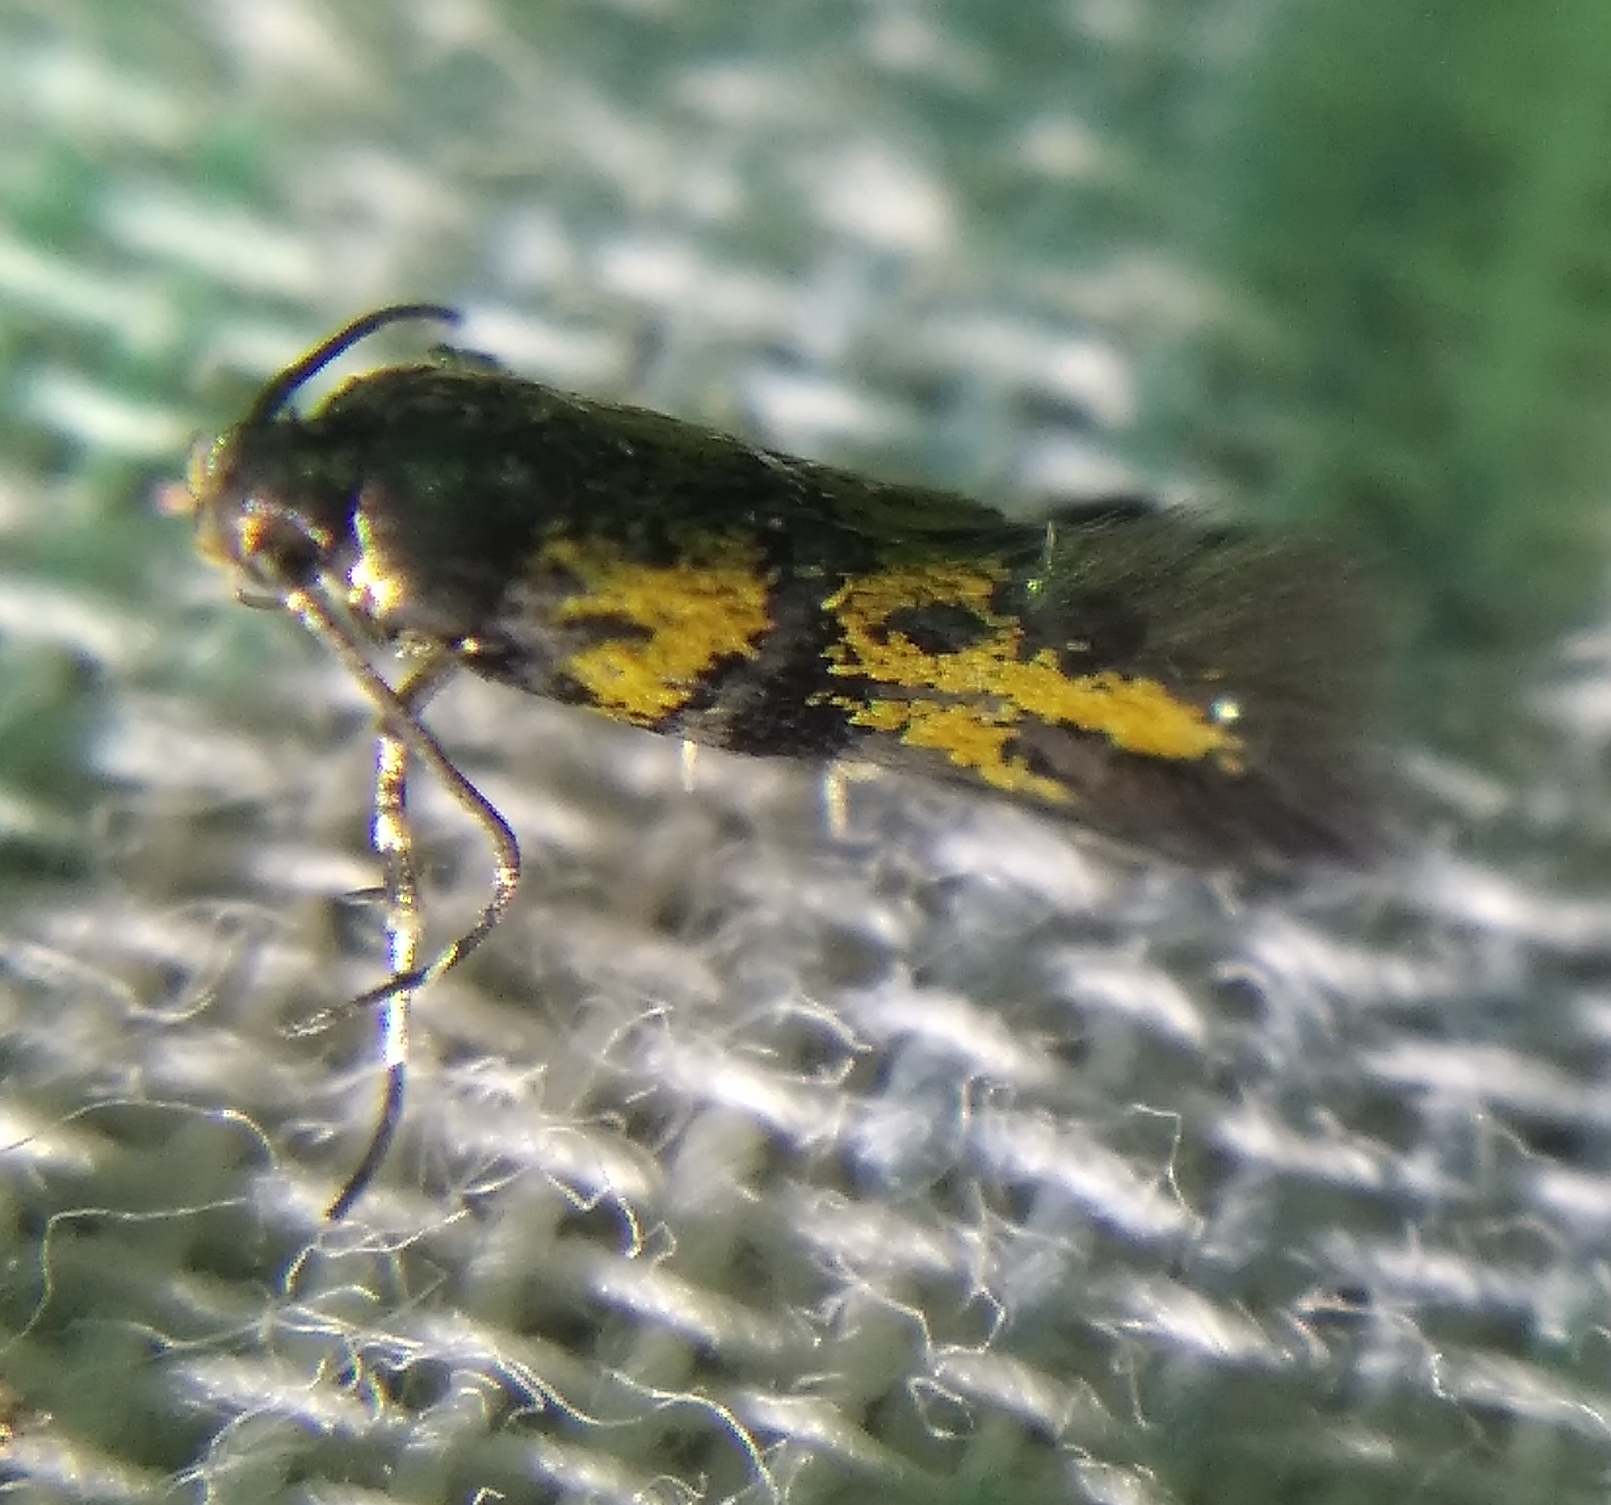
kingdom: Animalia
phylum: Arthropoda
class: Insecta
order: Lepidoptera
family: Gelechiidae
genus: Chrysoesthia
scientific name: Chrysoesthia drurella
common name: Flame neb
